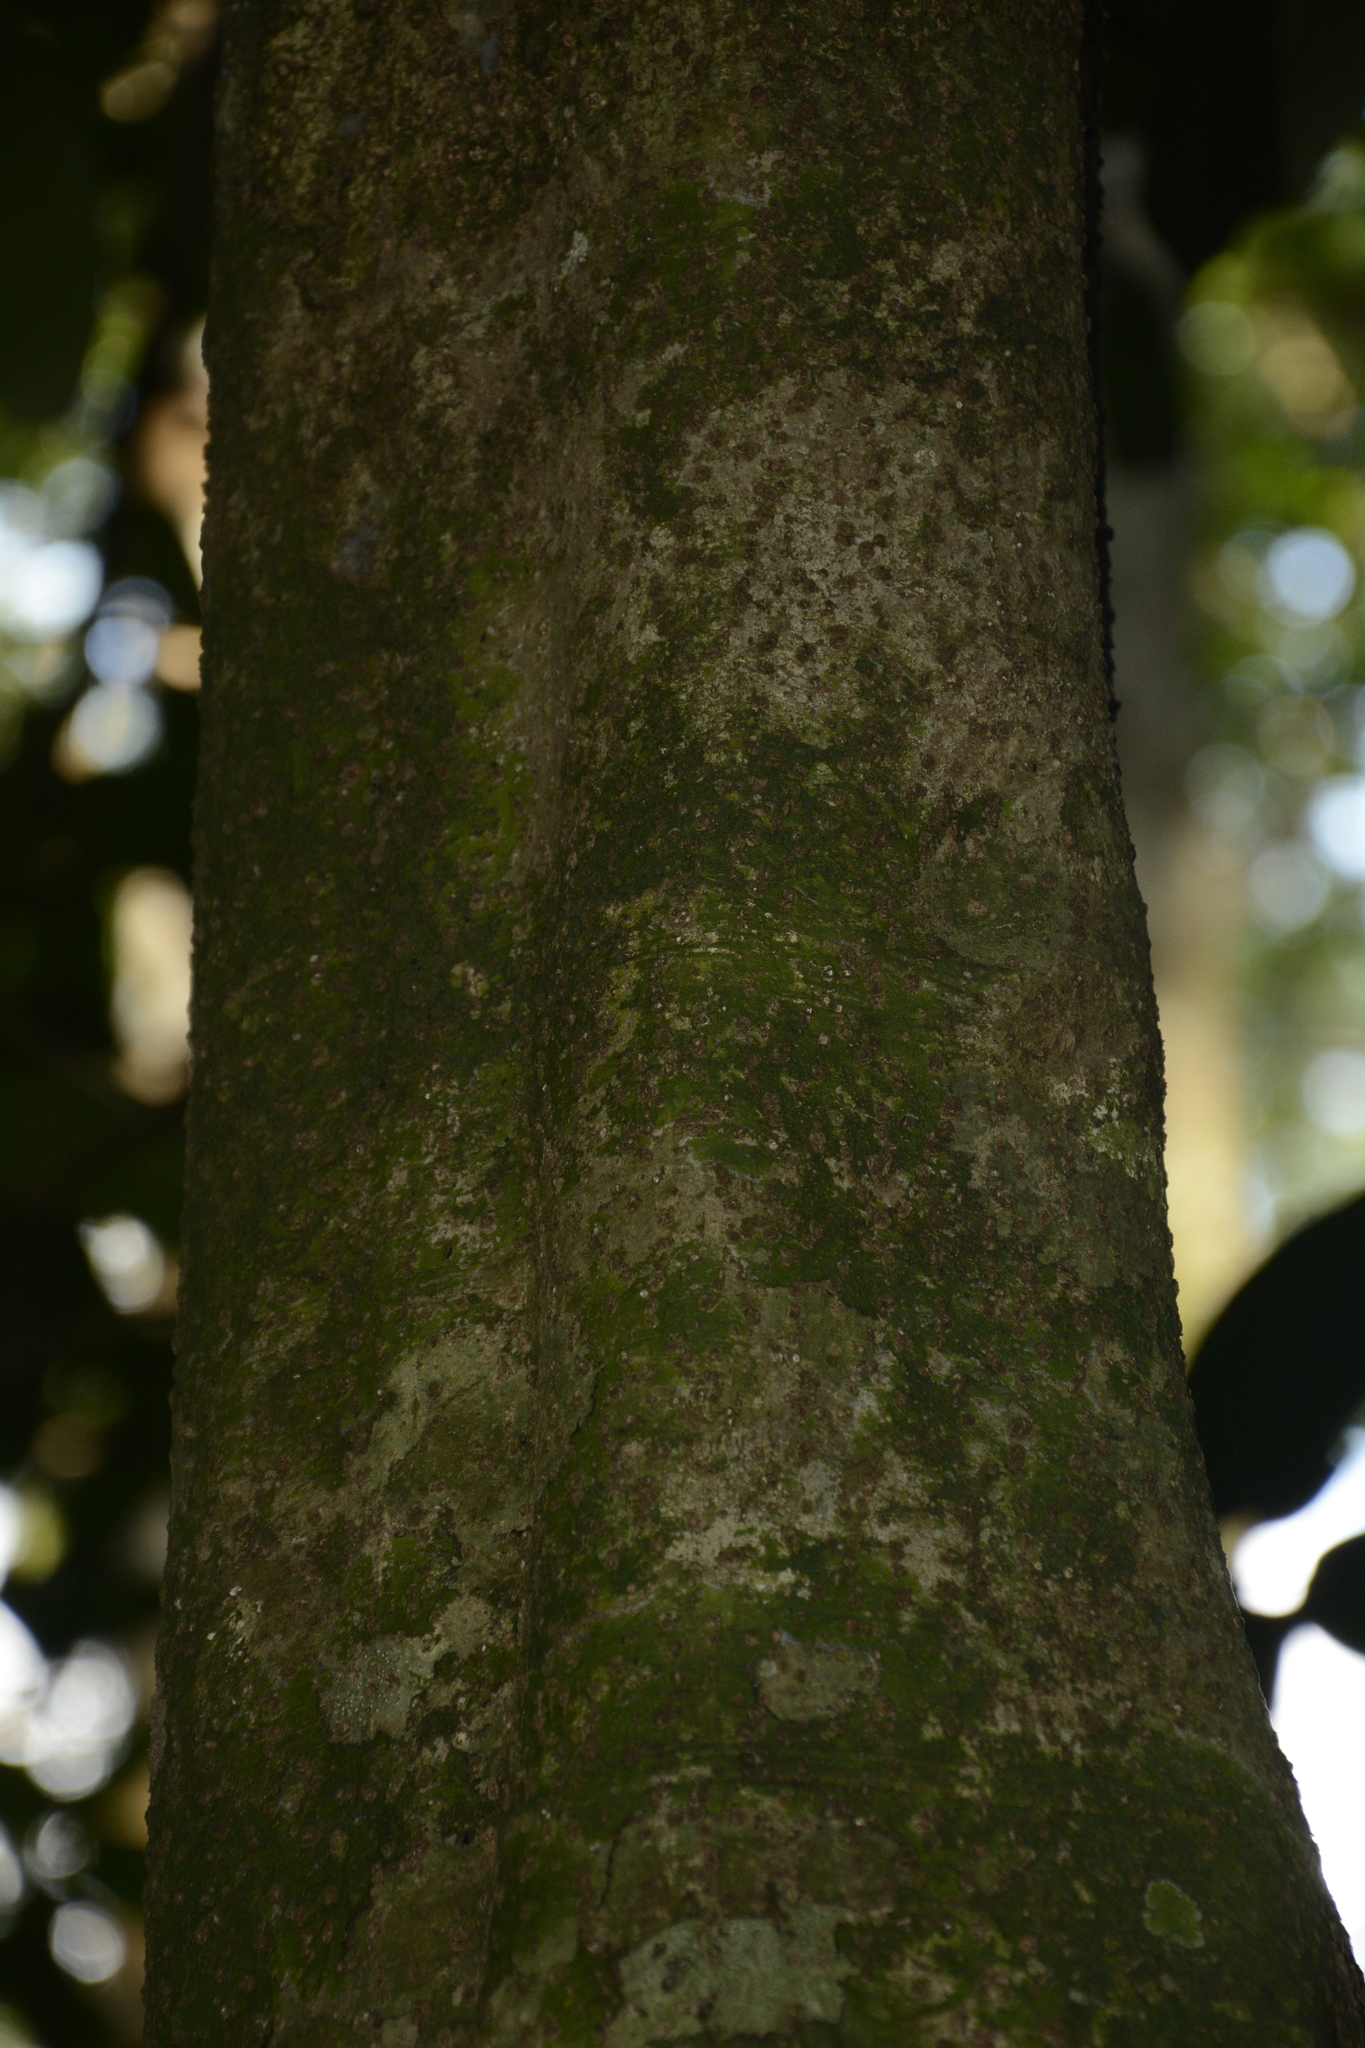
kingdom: Plantae
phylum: Tracheophyta
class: Magnoliopsida
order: Malpighiales
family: Putranjivaceae
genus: Drypetes
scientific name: Drypetes oblongifolia
